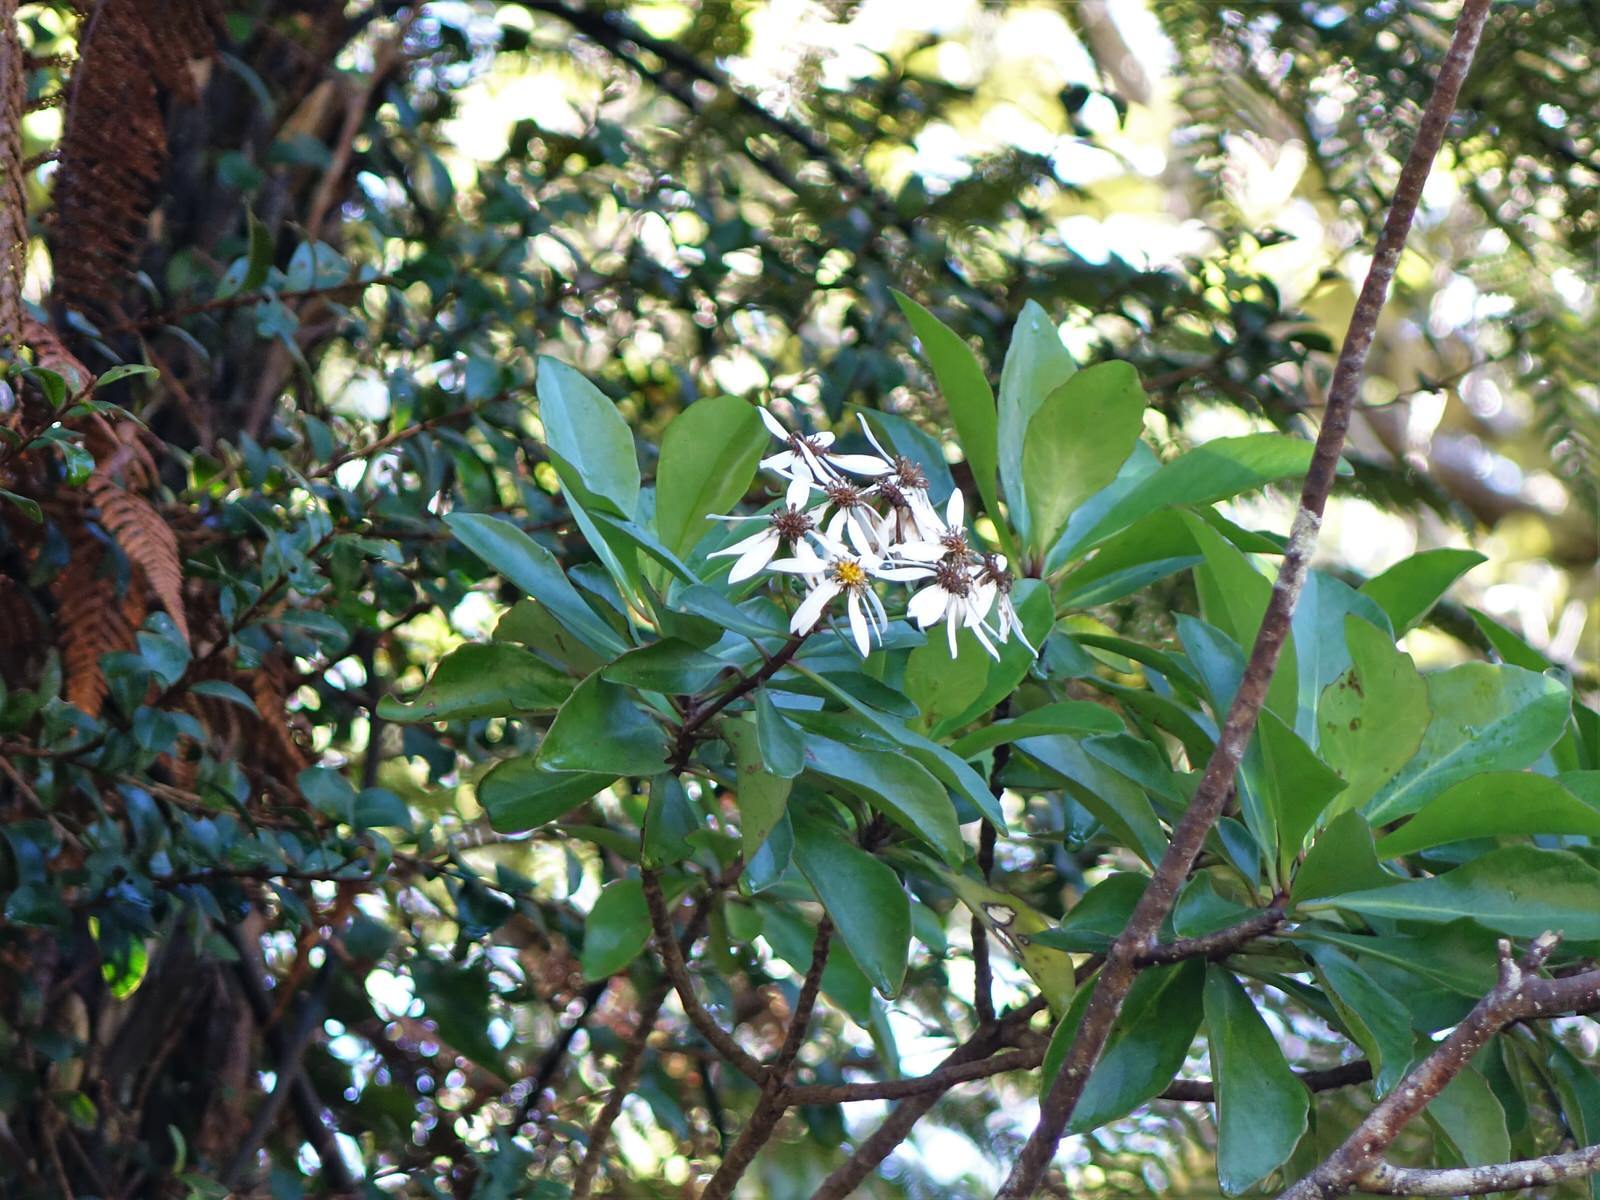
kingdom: Plantae
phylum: Tracheophyta
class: Magnoliopsida
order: Asterales
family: Asteraceae
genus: Brachyglottis
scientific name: Brachyglottis kirkii
